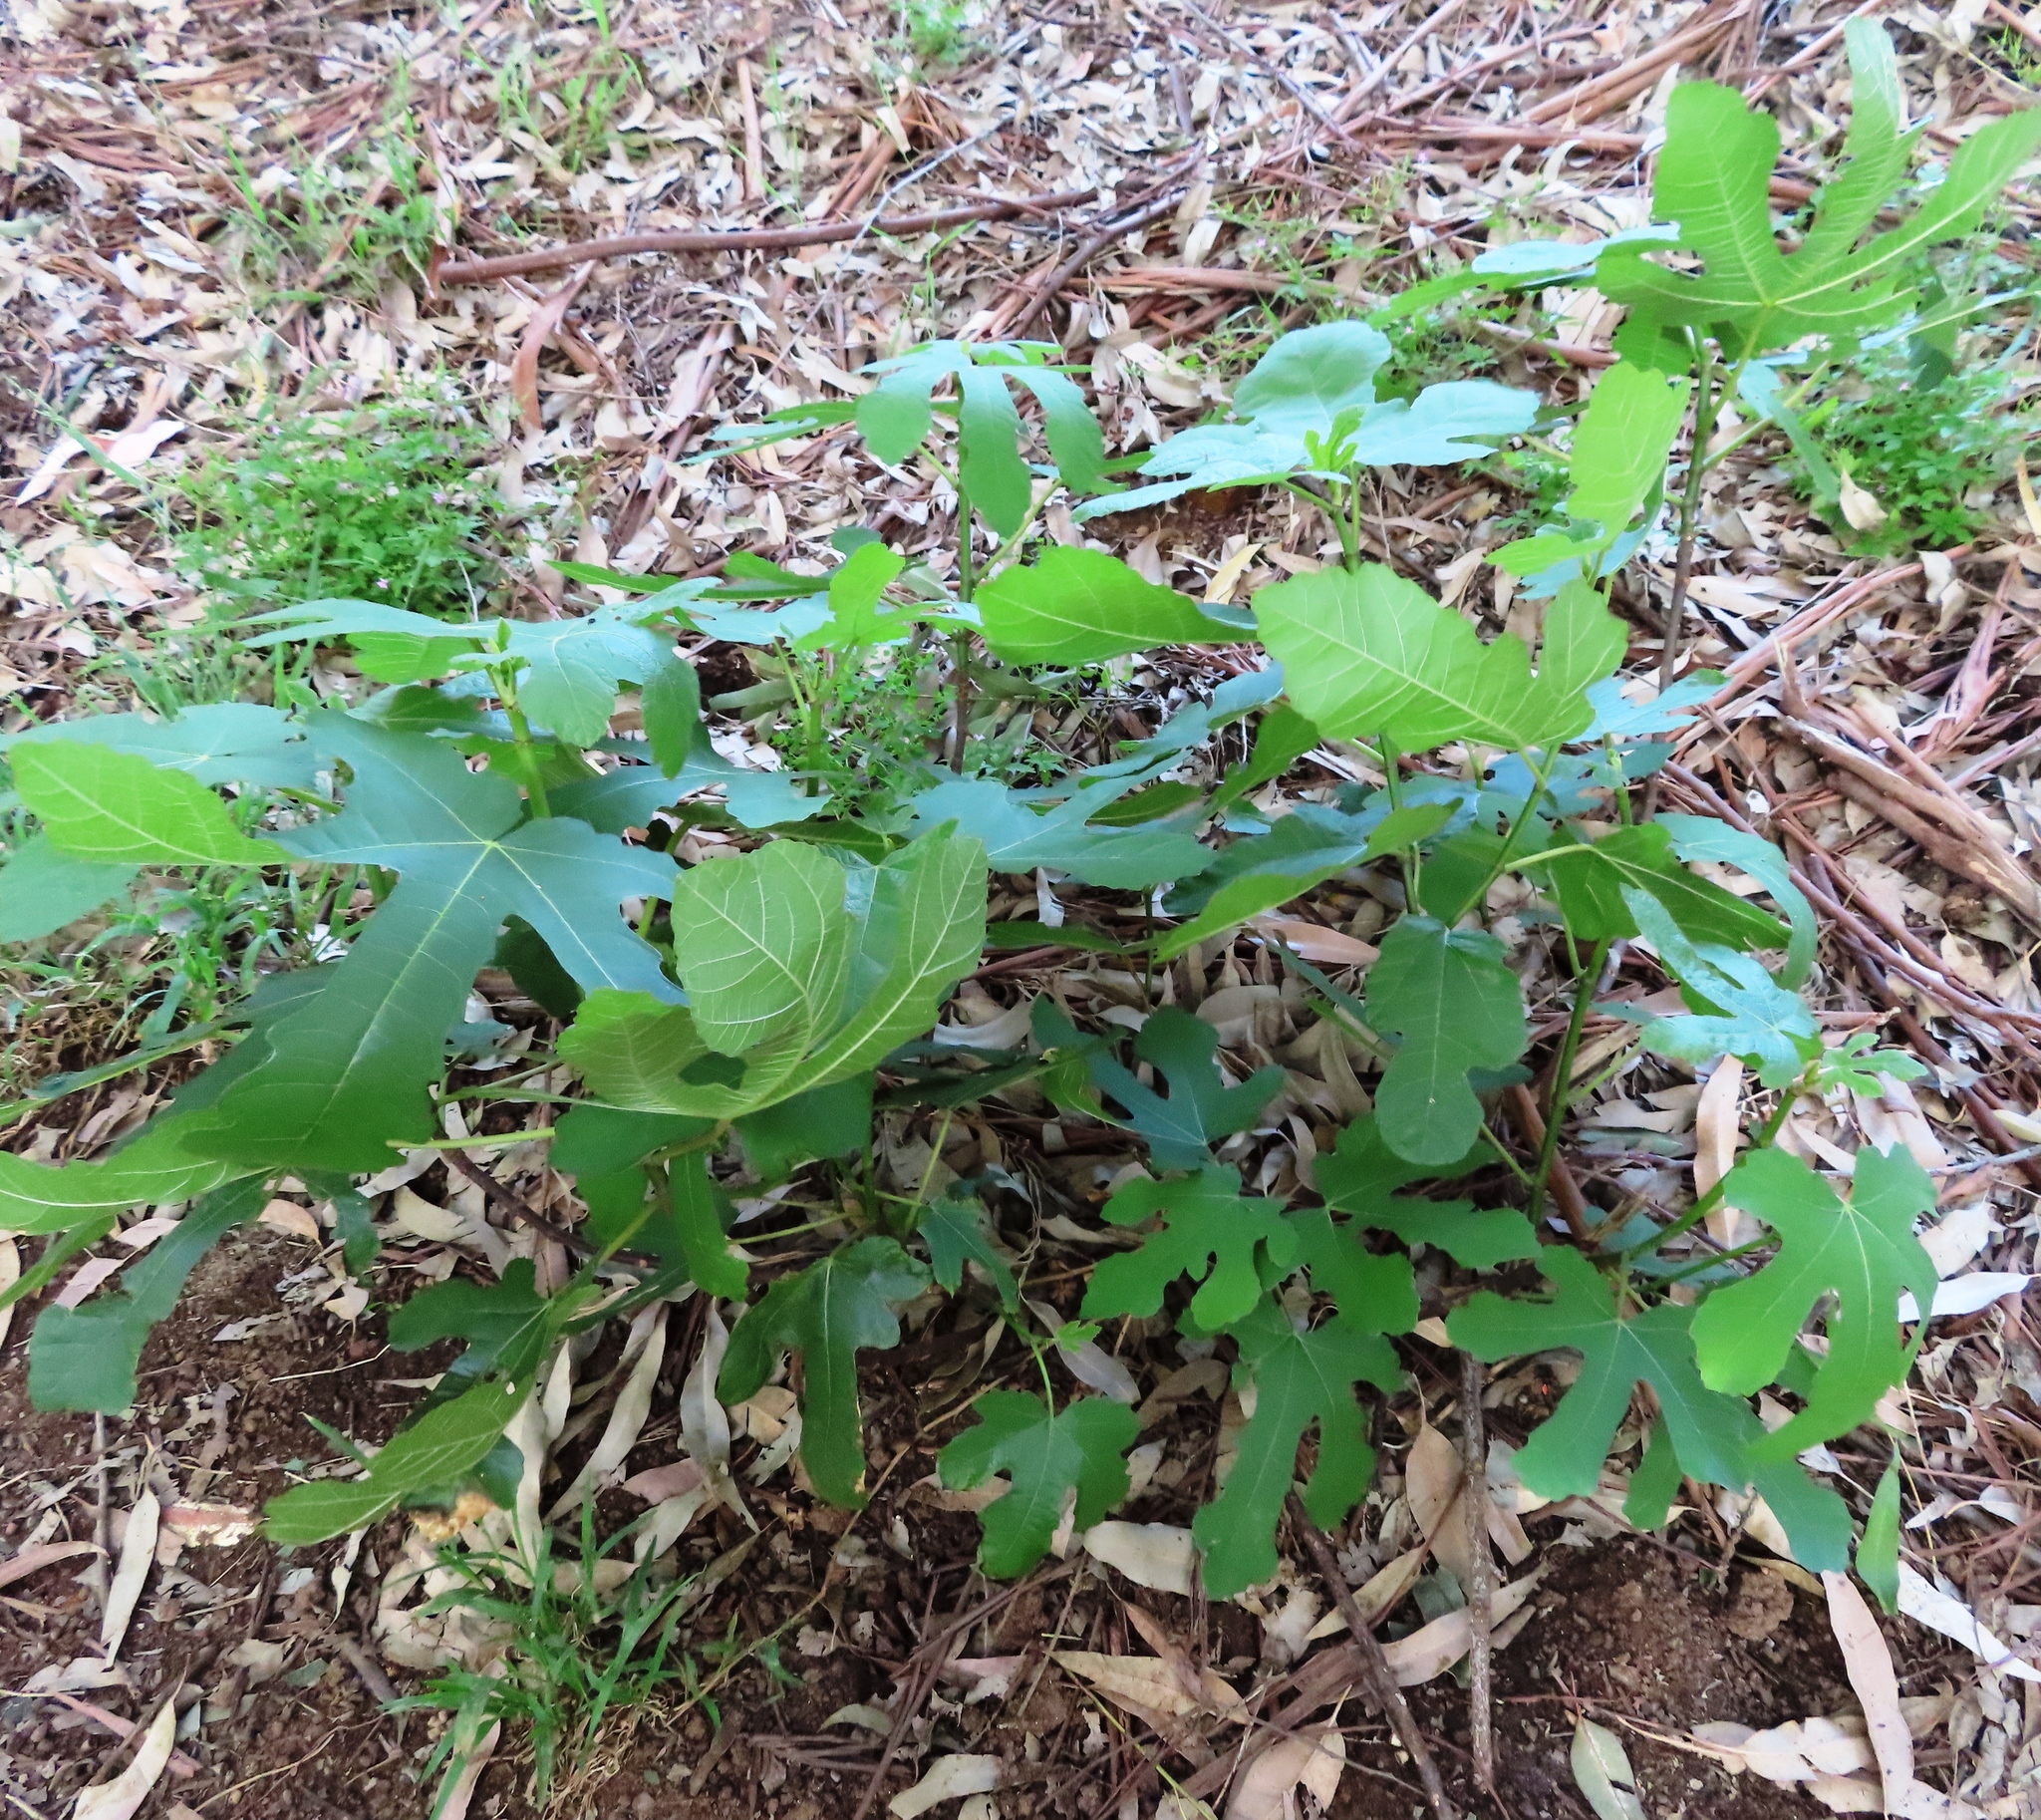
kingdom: Plantae
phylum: Tracheophyta
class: Magnoliopsida
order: Rosales
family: Moraceae
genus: Ficus
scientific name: Ficus carica
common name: Fig
